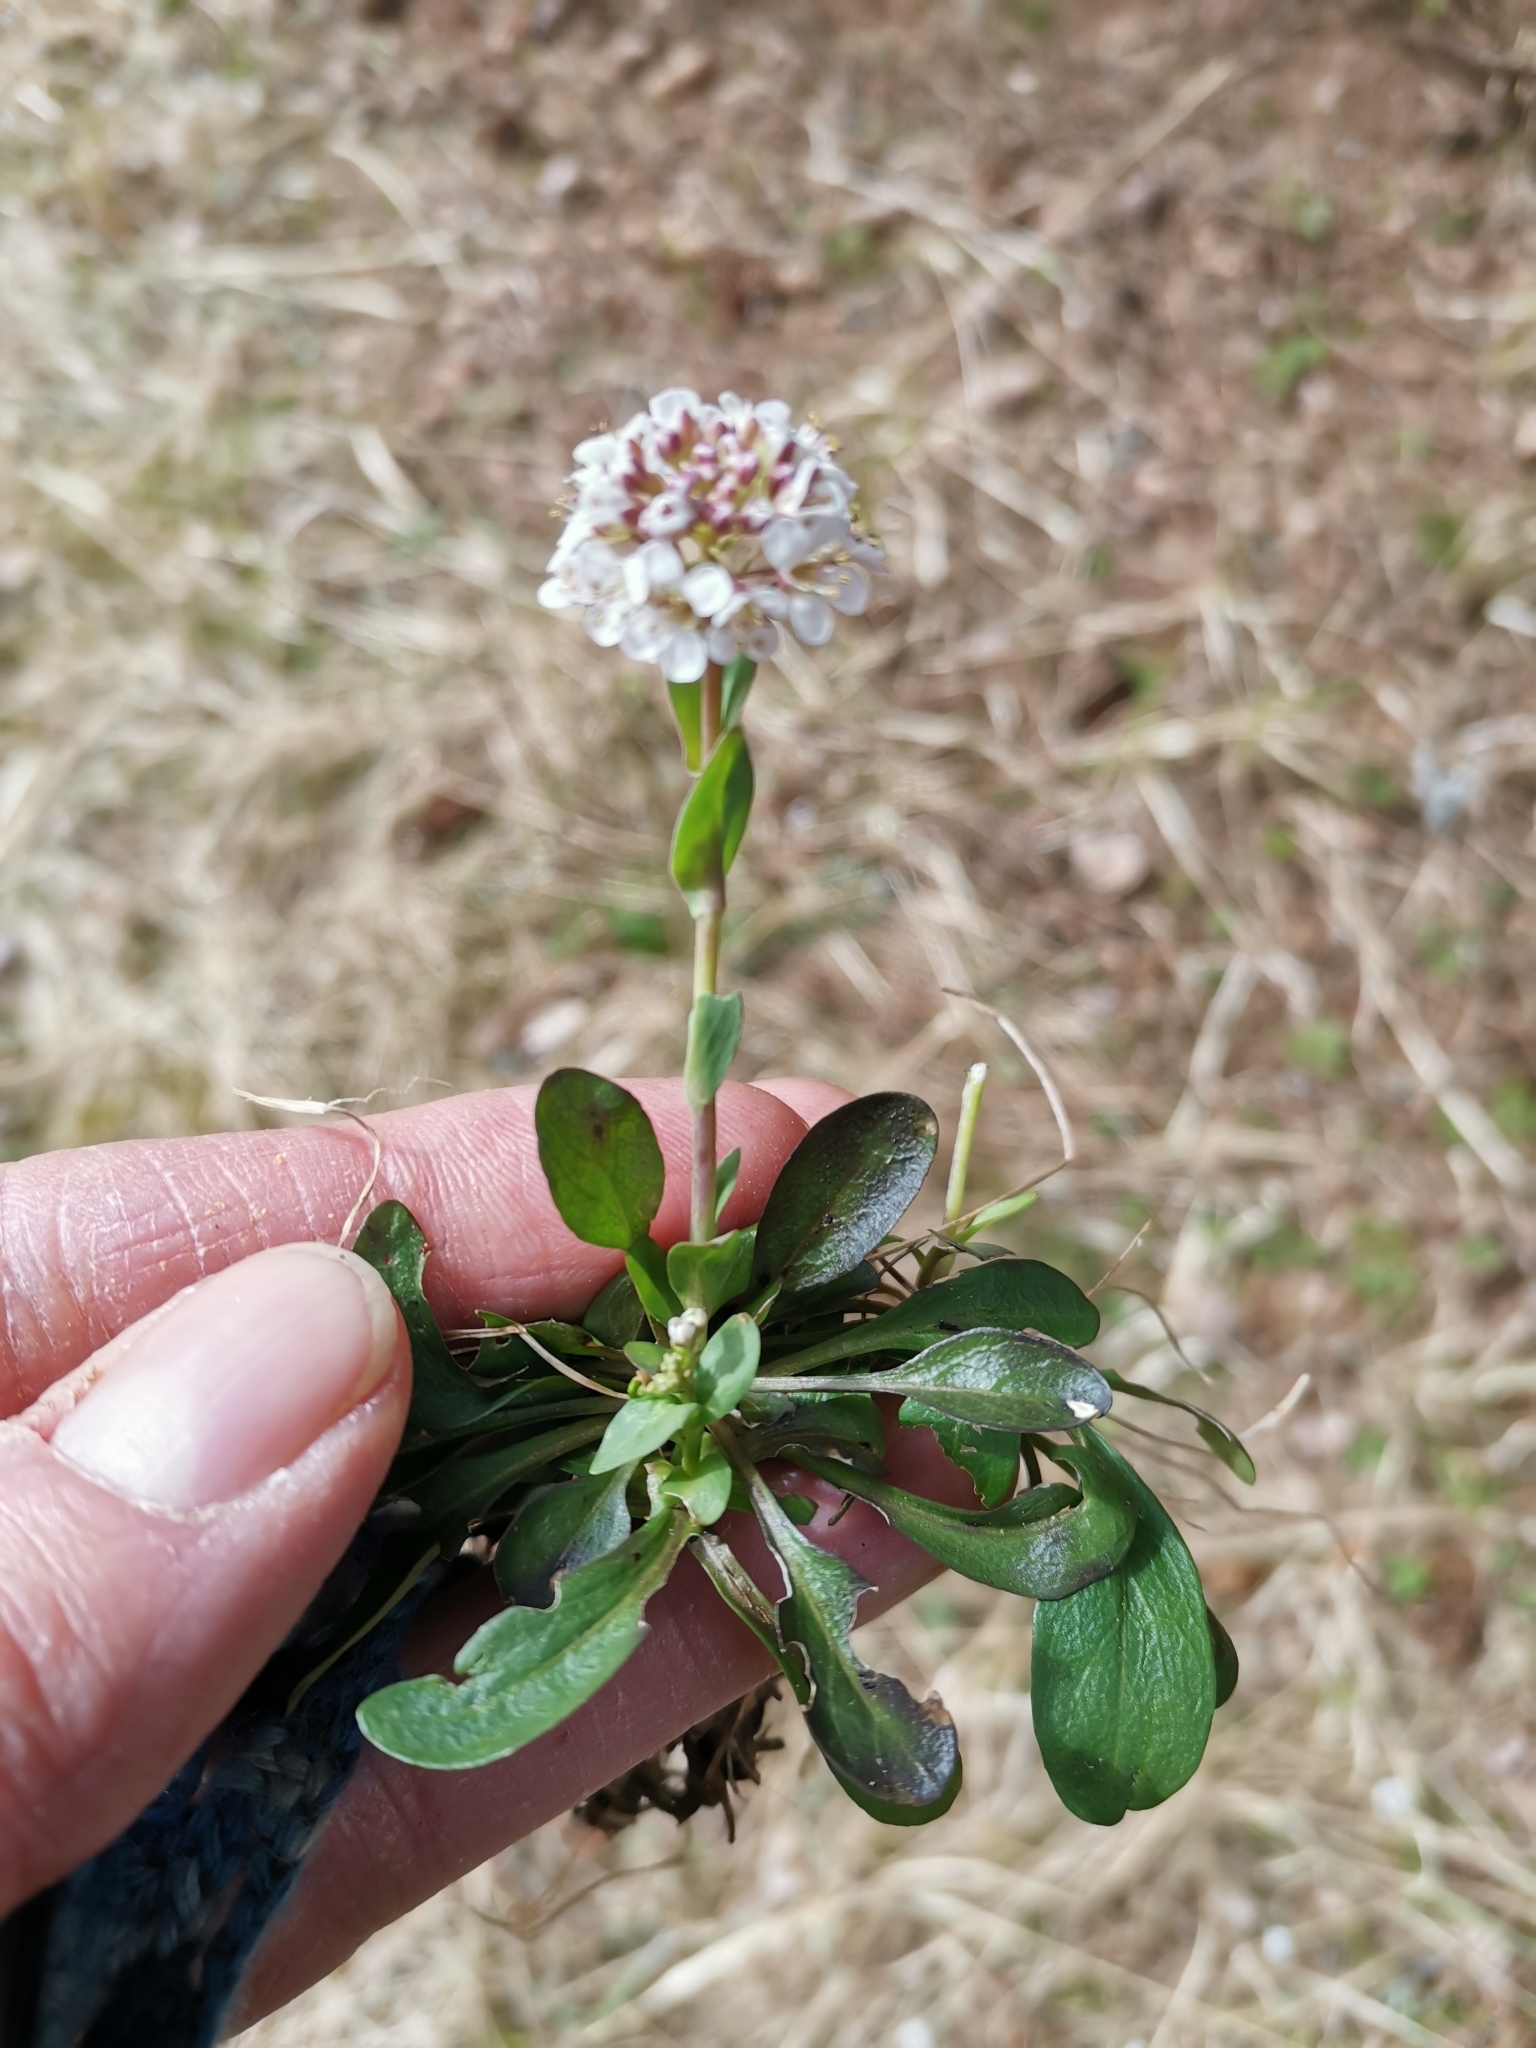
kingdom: Plantae
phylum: Tracheophyta
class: Magnoliopsida
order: Brassicales
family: Brassicaceae
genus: Noccaea
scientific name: Noccaea caerulescens
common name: Alpine pennycress
